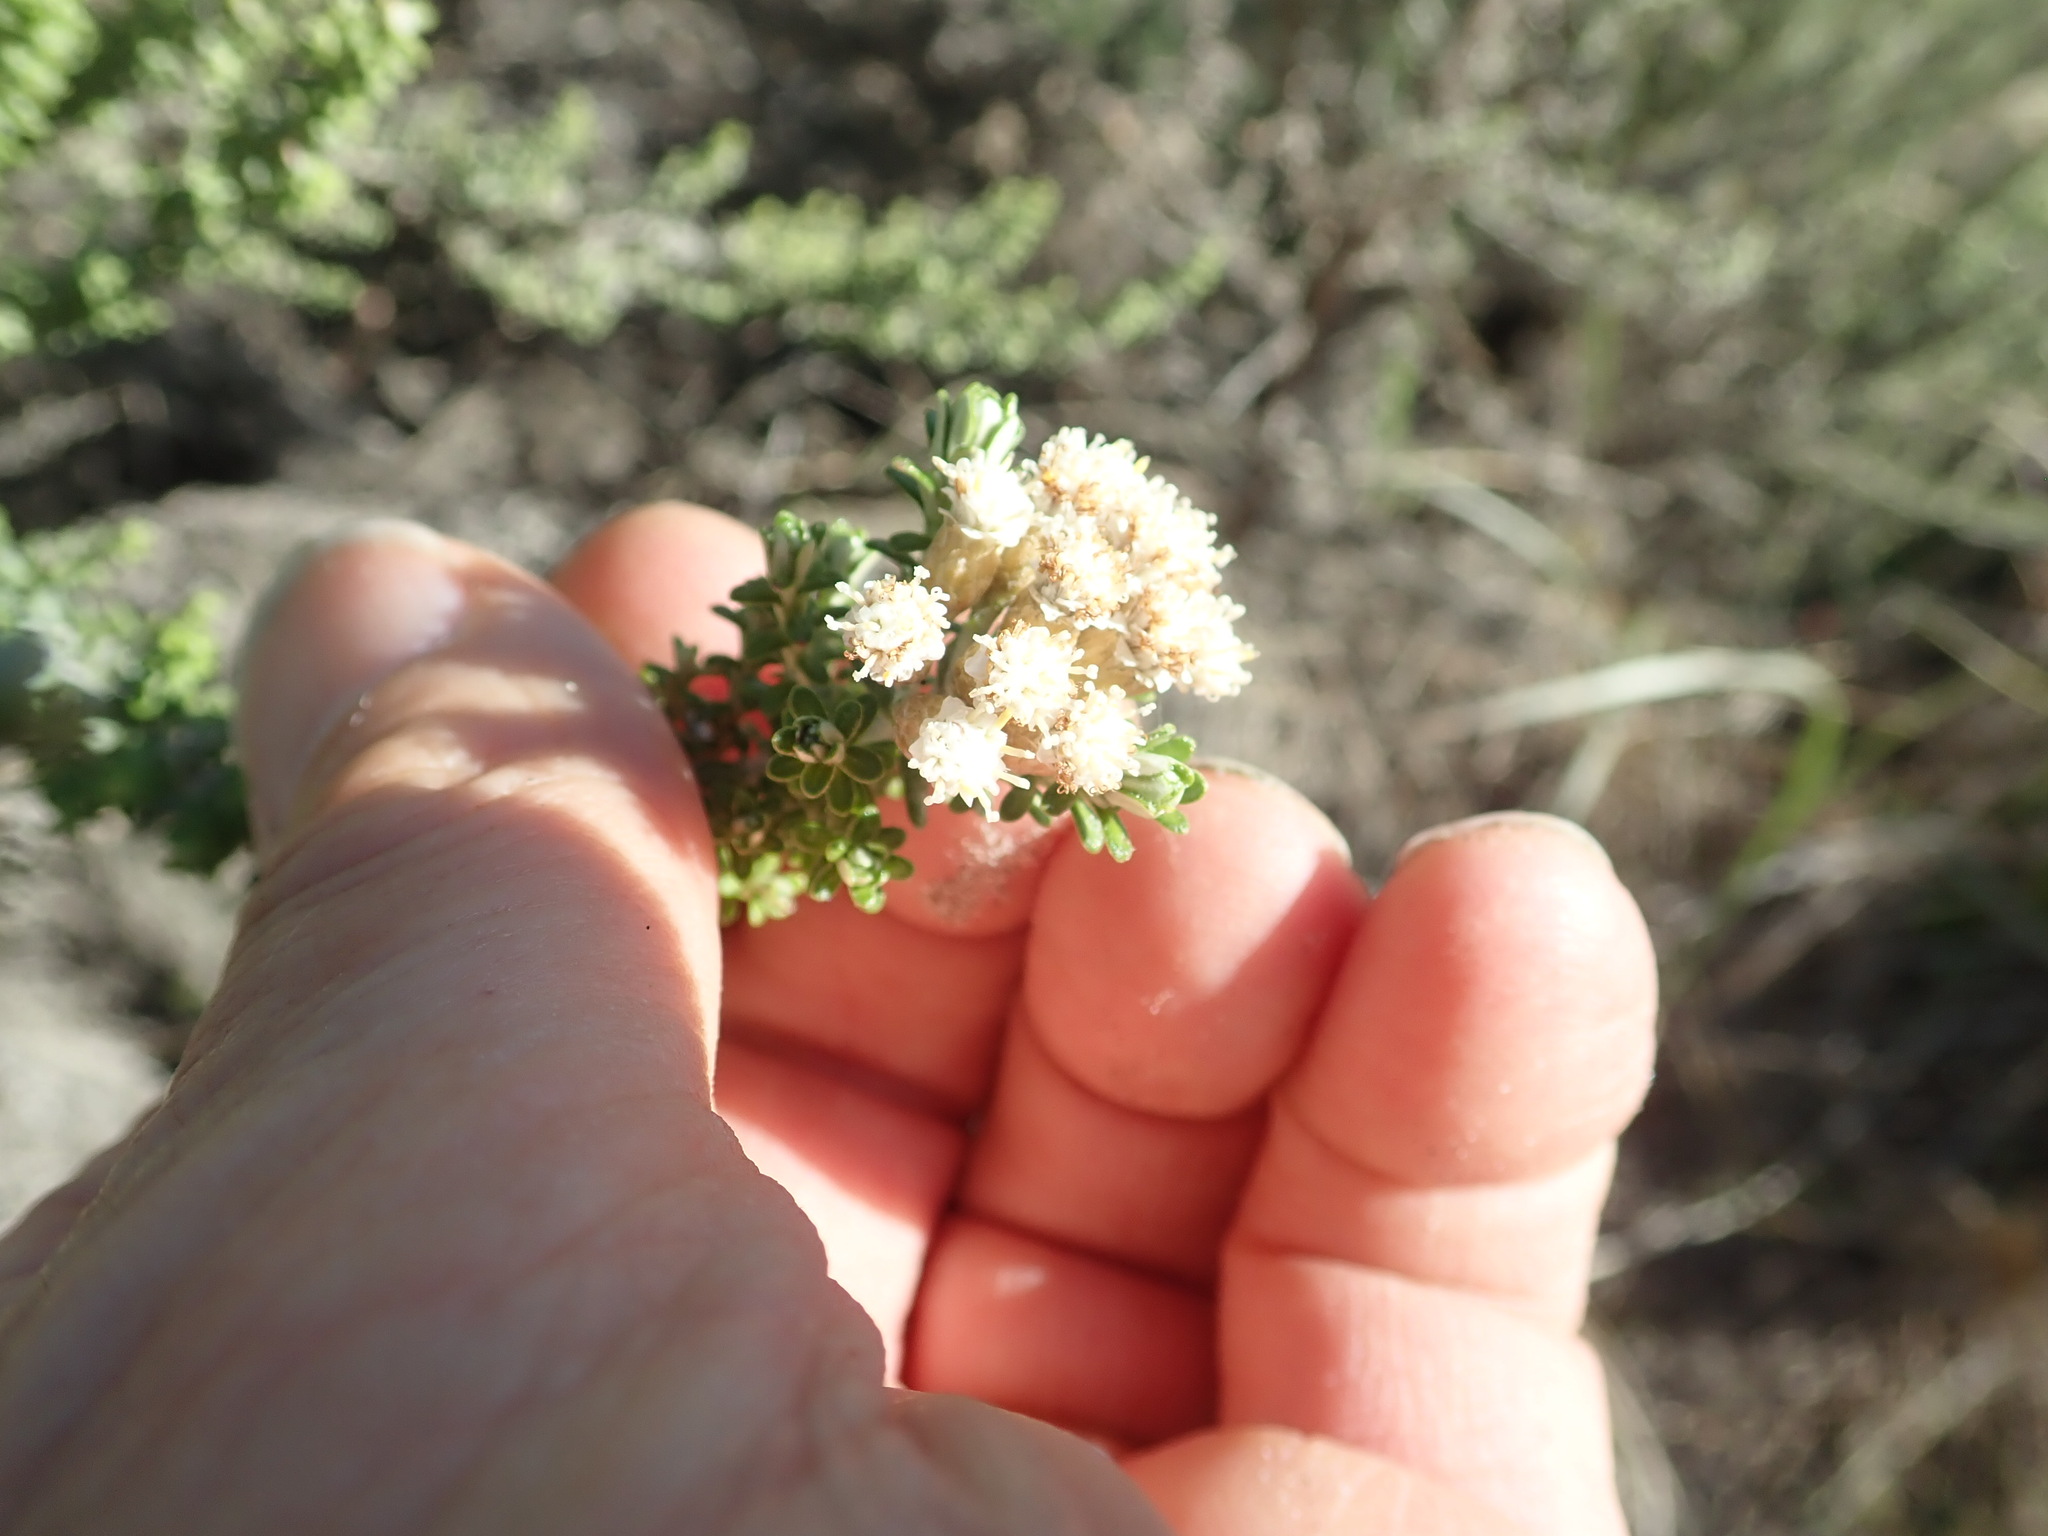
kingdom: Plantae
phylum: Tracheophyta
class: Magnoliopsida
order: Asterales
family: Asteraceae
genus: Ozothamnus
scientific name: Ozothamnus leptophyllus
